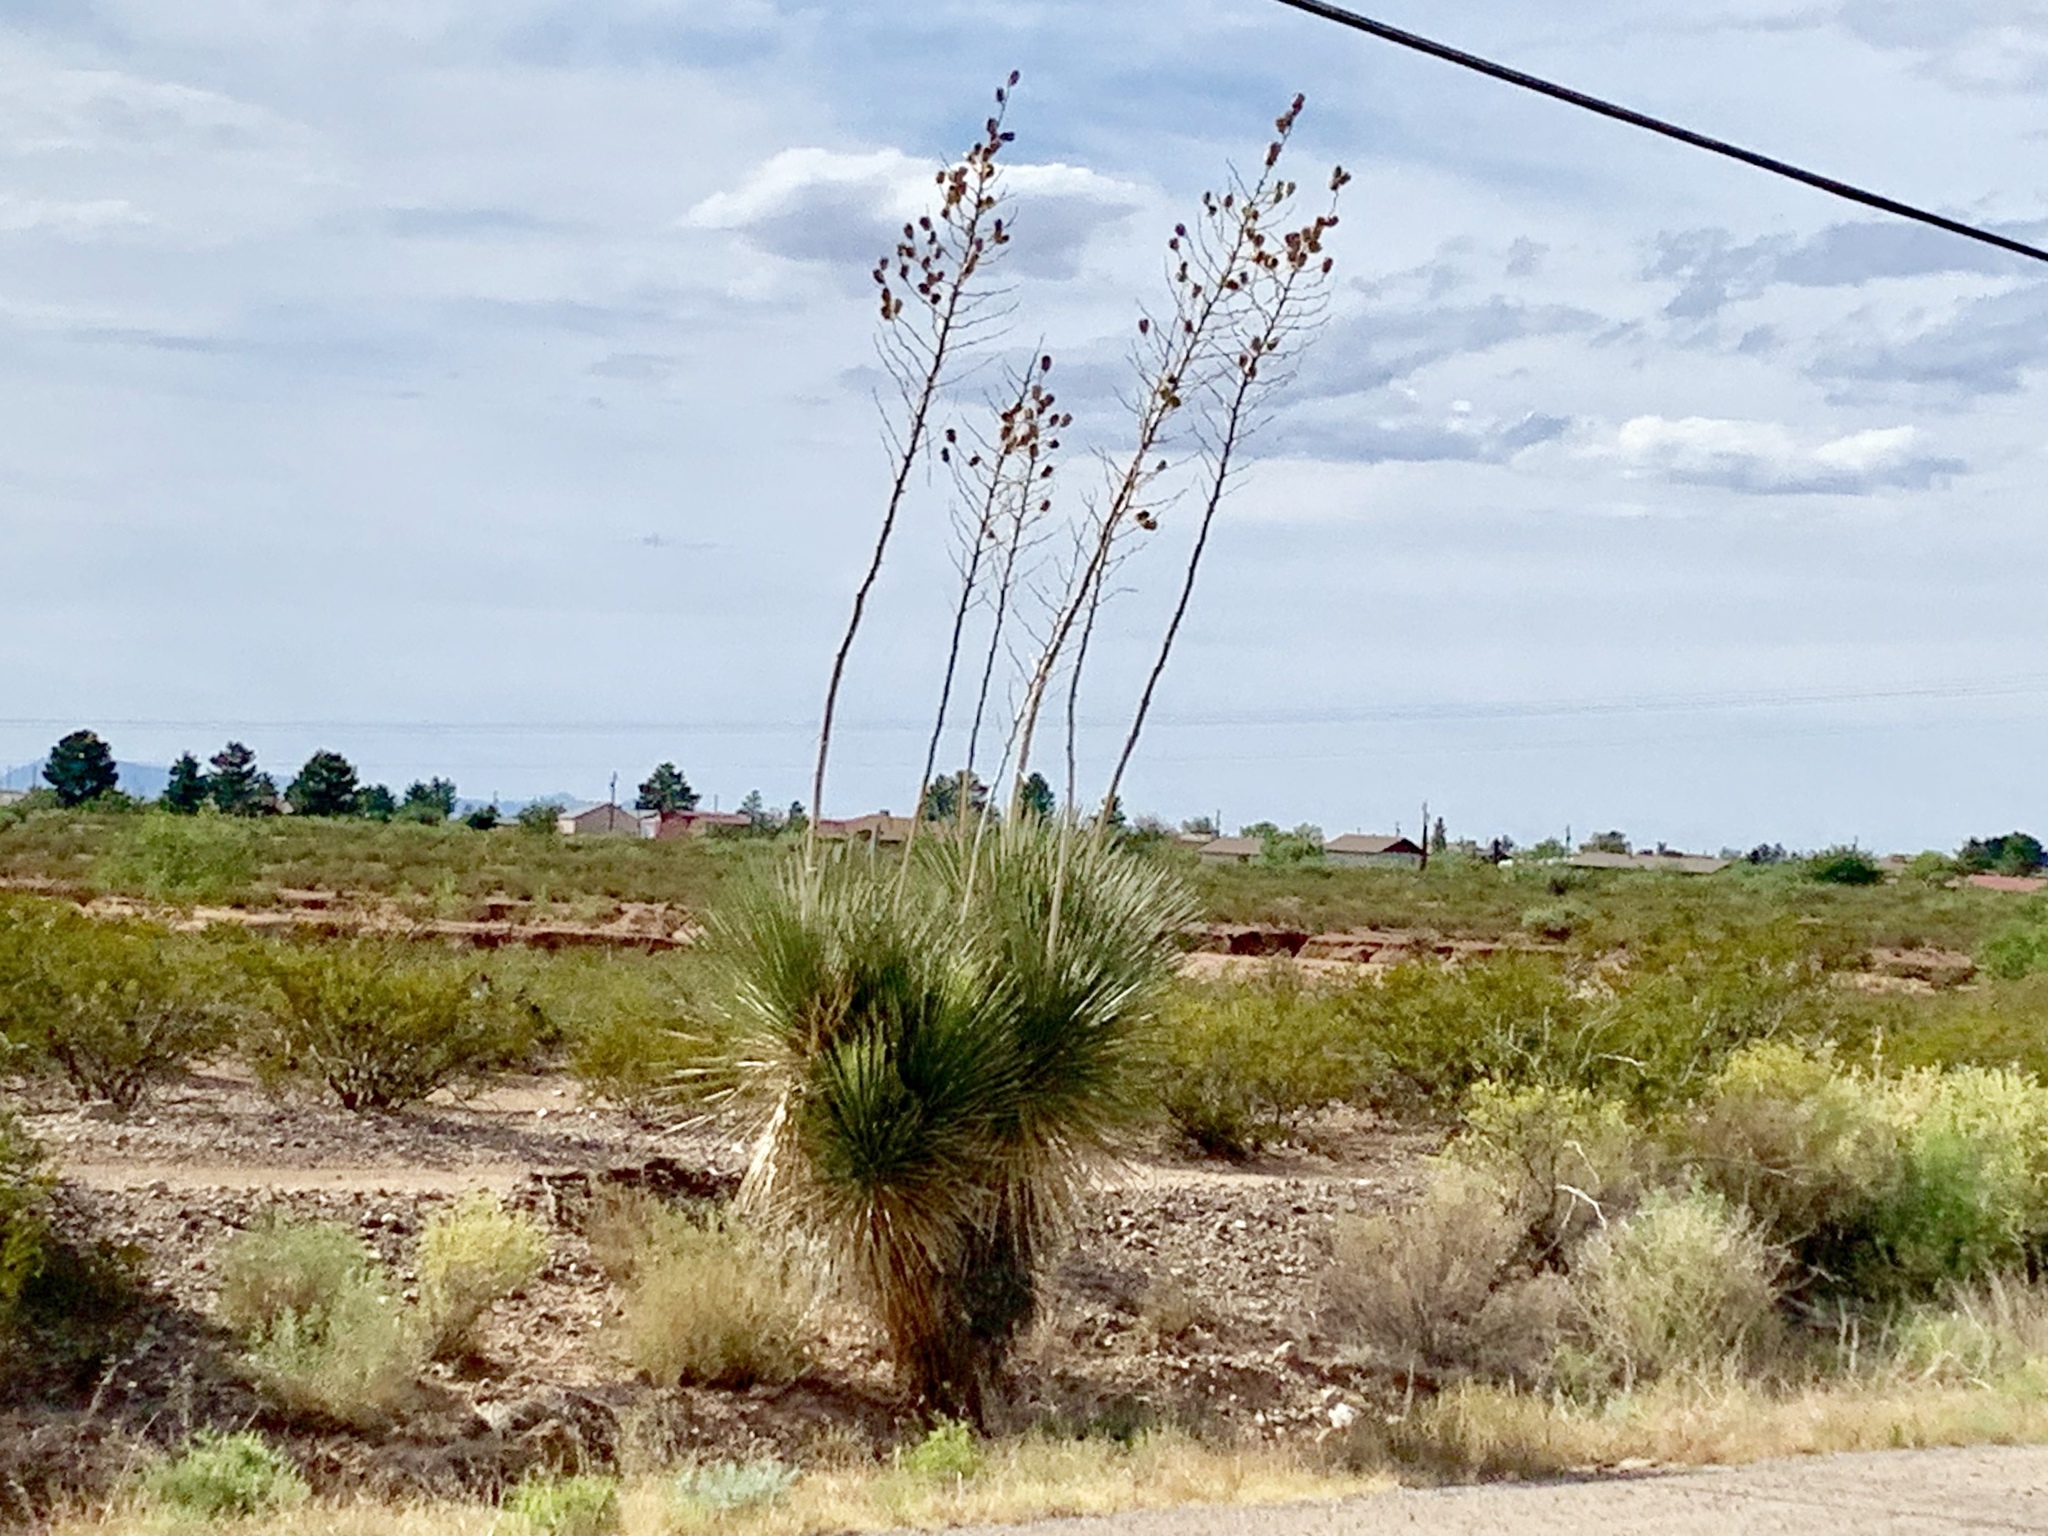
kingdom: Plantae
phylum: Tracheophyta
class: Liliopsida
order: Asparagales
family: Asparagaceae
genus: Yucca
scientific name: Yucca elata
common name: Palmella
